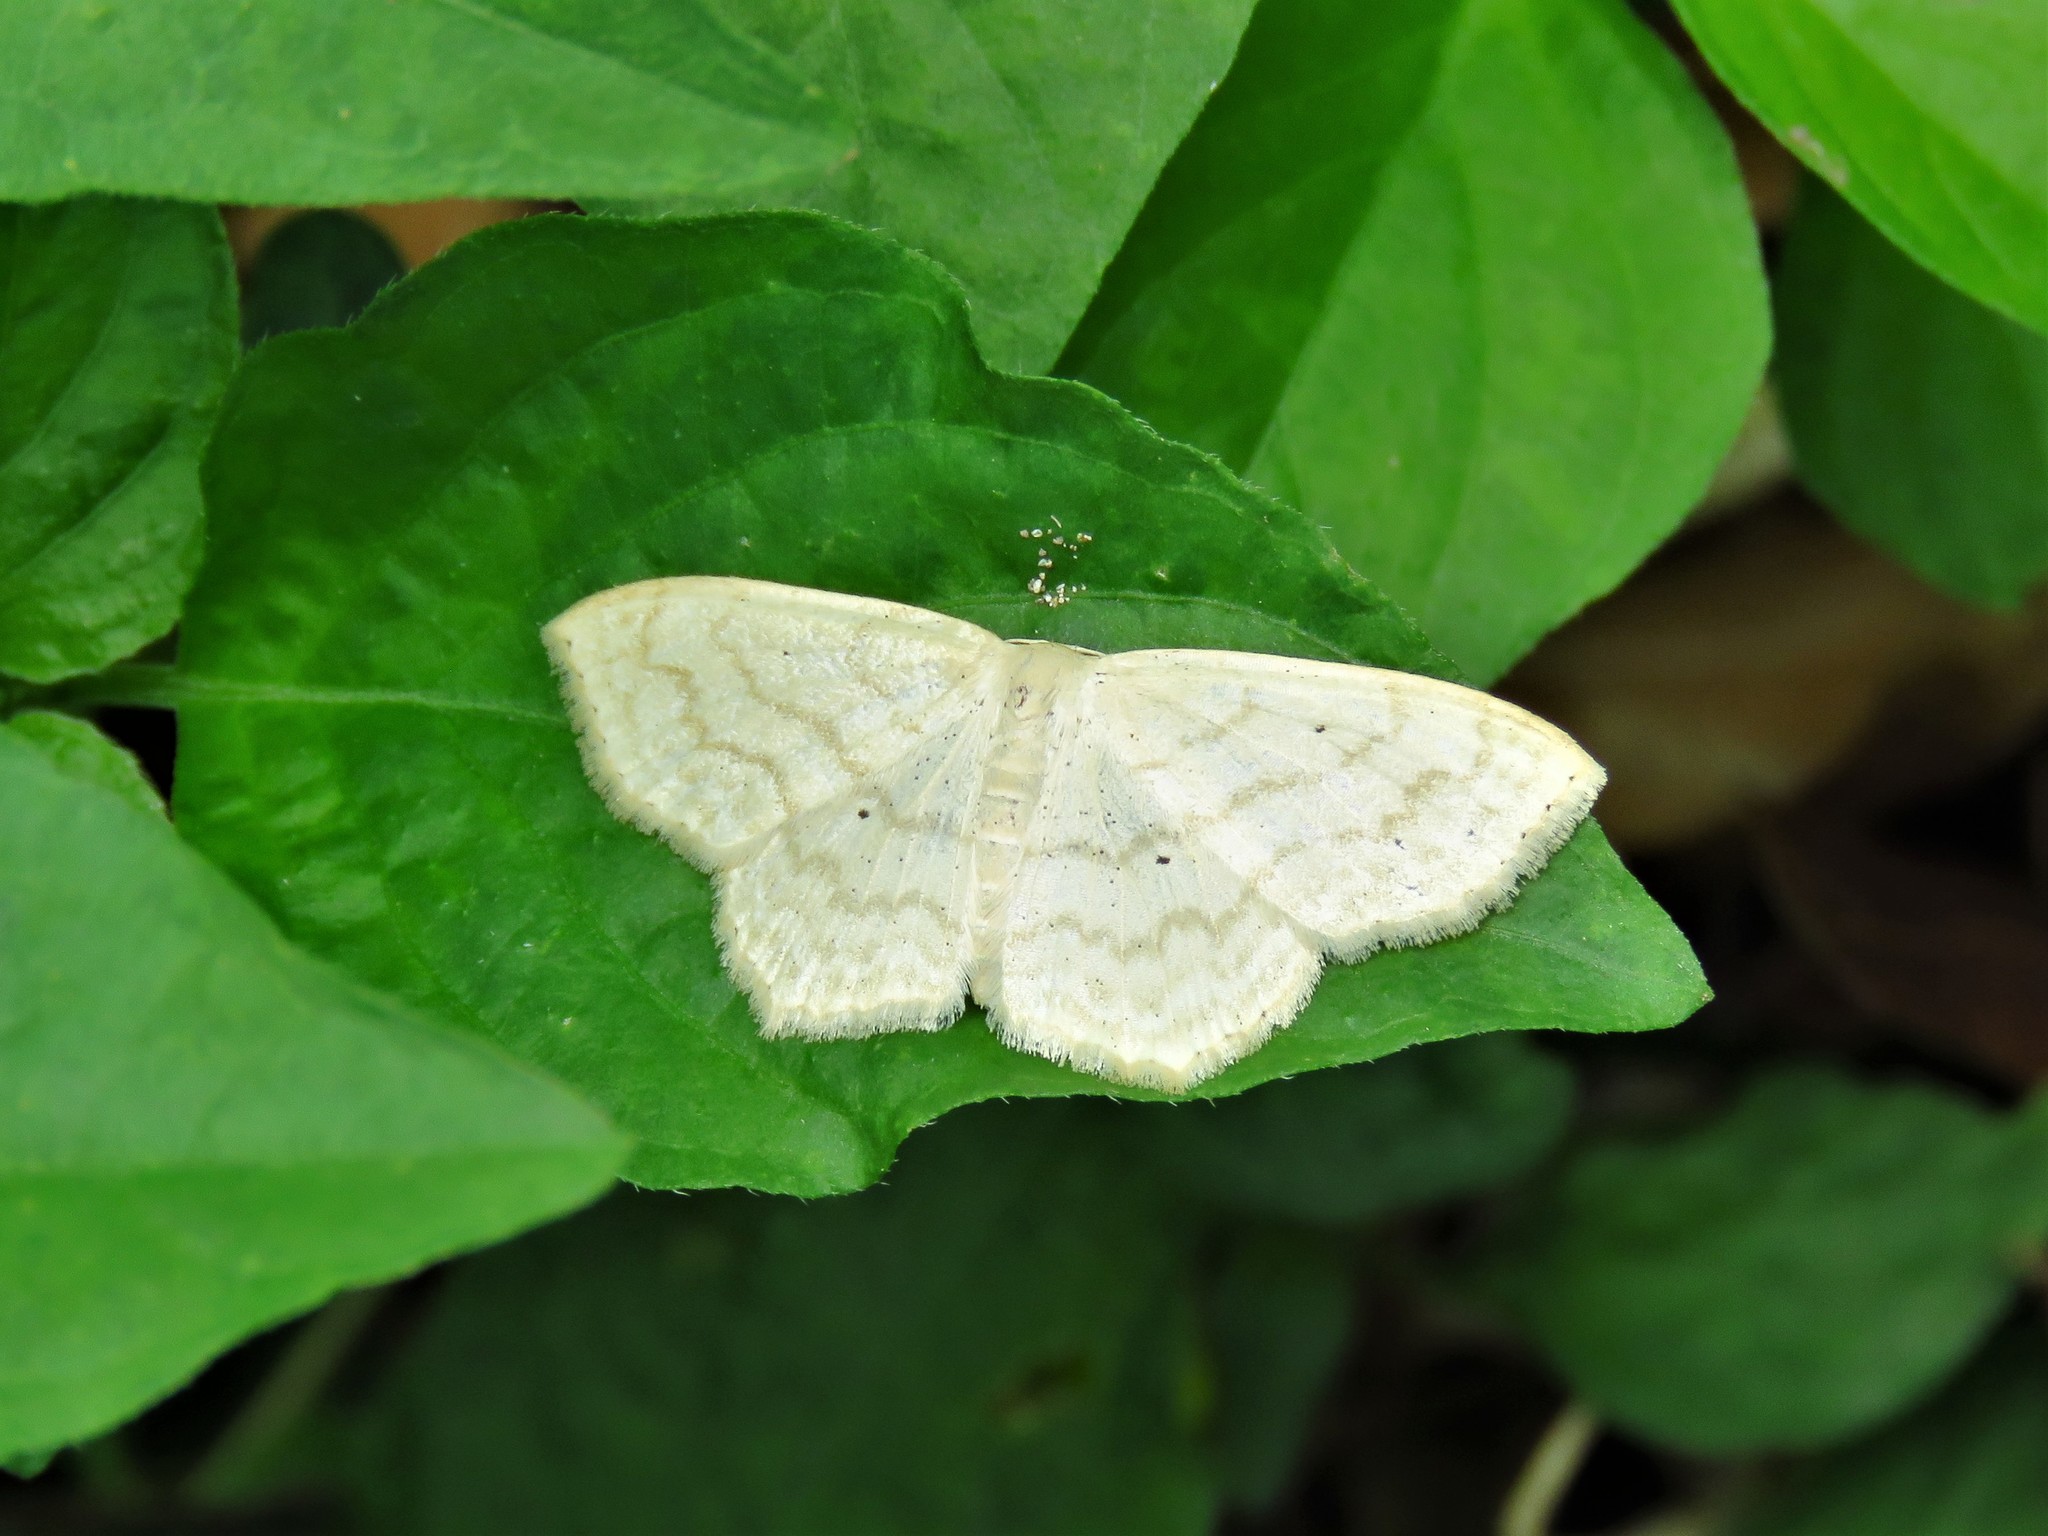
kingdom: Animalia
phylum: Arthropoda
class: Insecta
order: Lepidoptera
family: Geometridae
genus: Scopula
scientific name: Scopula limboundata
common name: Large lace border
